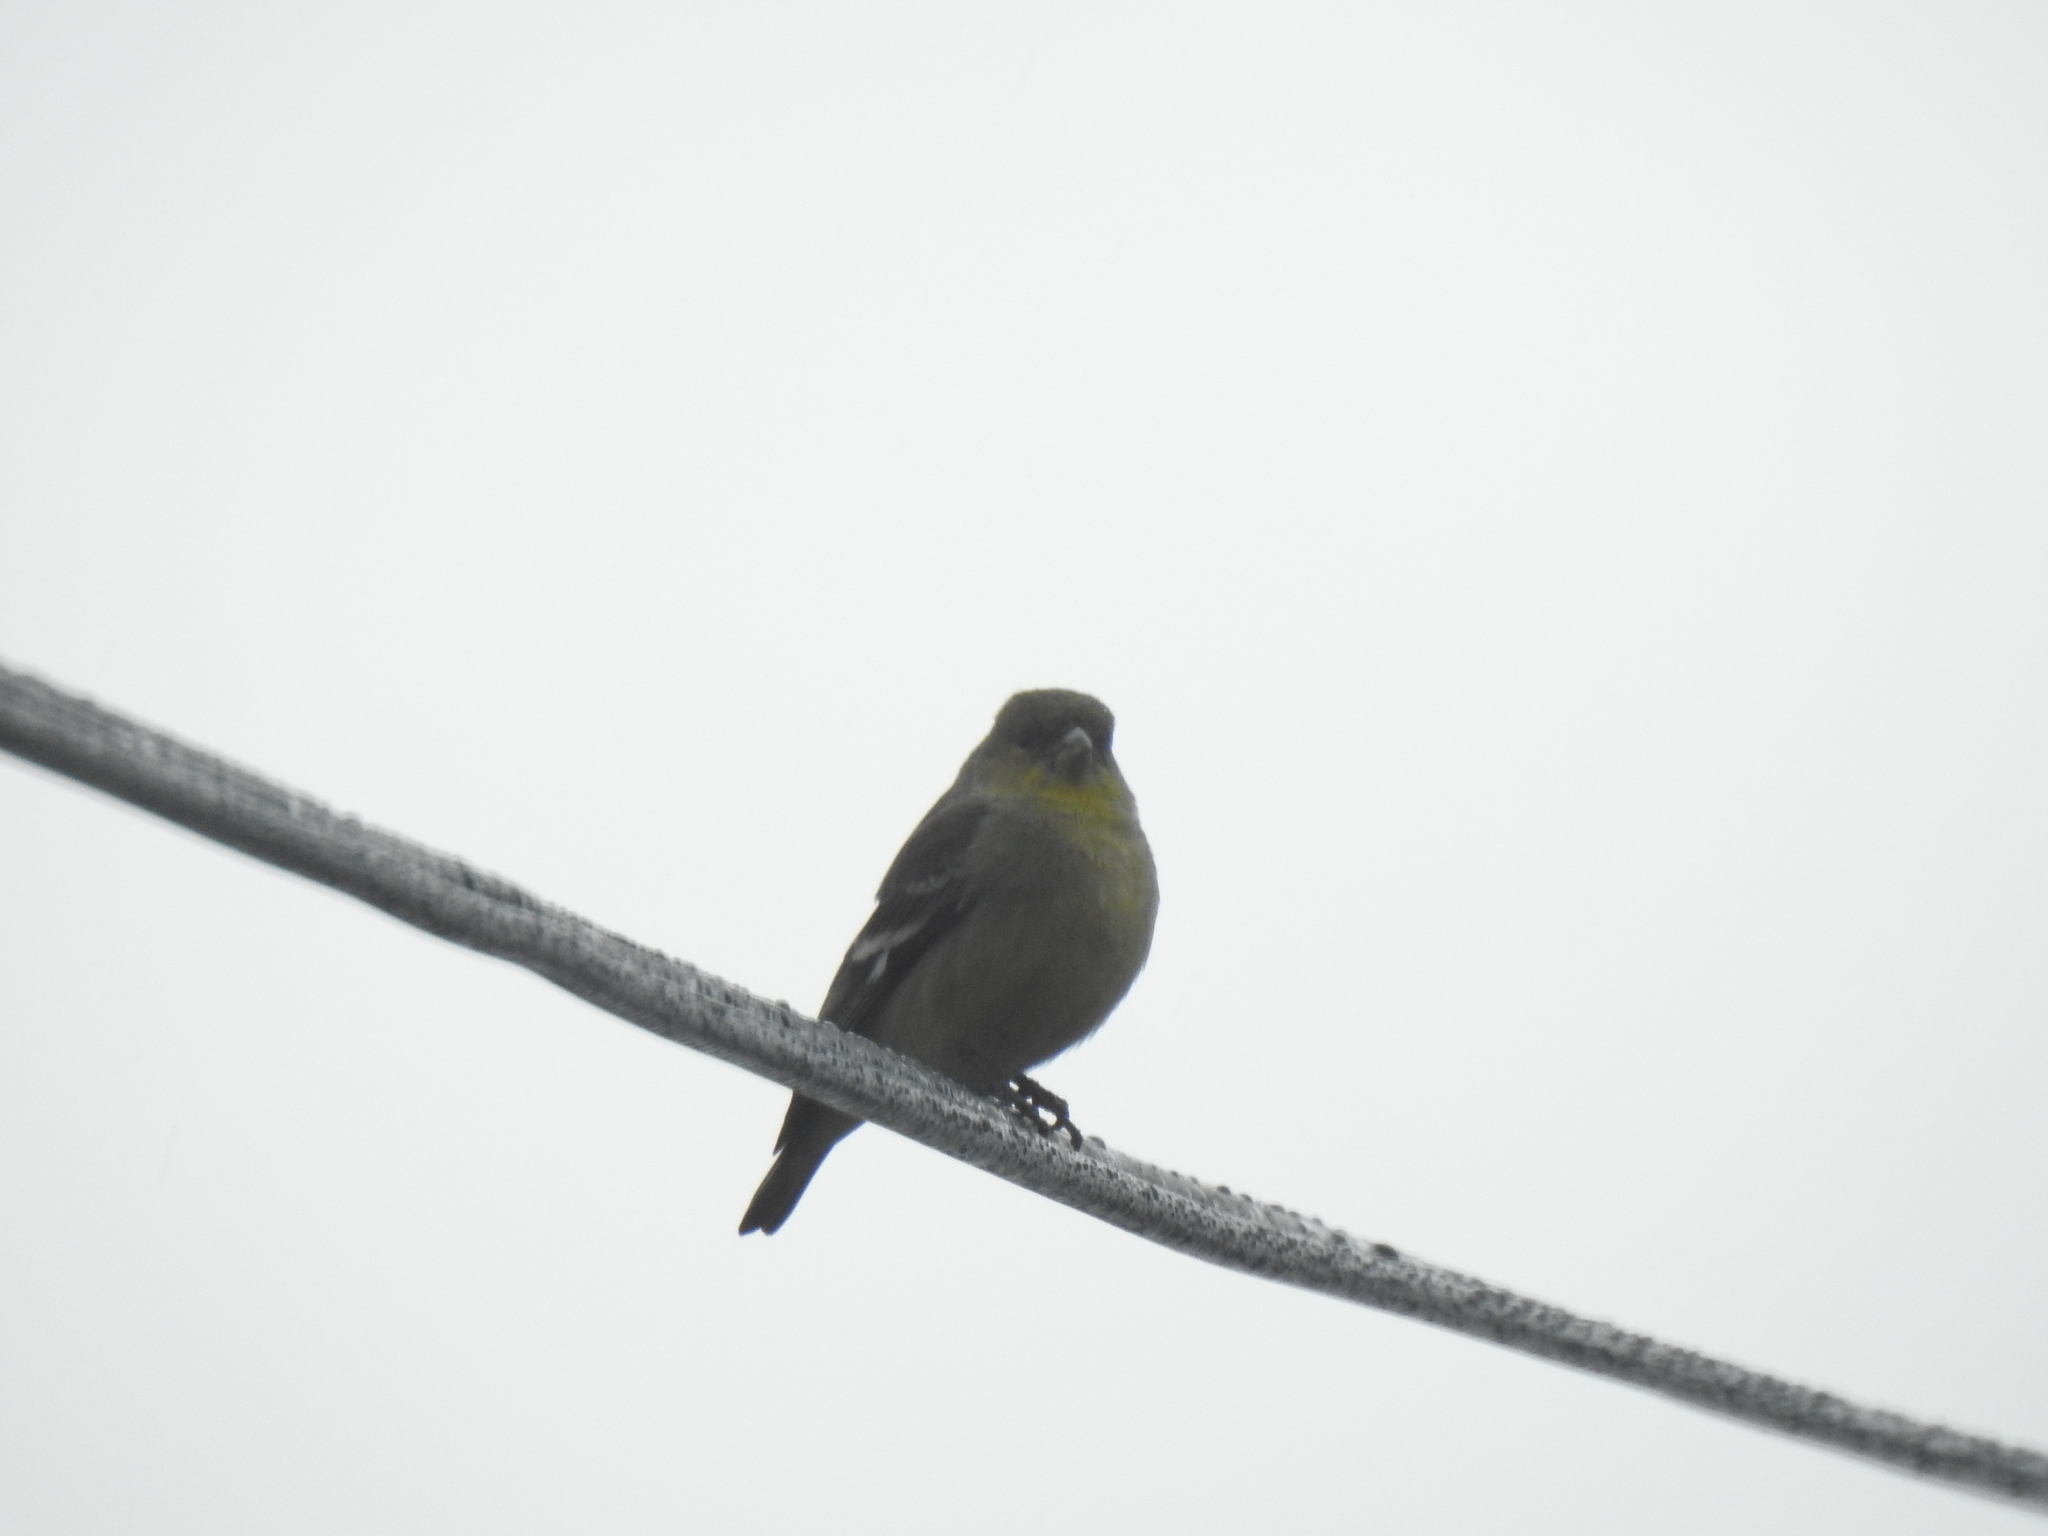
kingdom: Animalia
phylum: Chordata
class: Aves
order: Passeriformes
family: Fringillidae
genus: Spinus
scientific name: Spinus psaltria
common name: Lesser goldfinch
